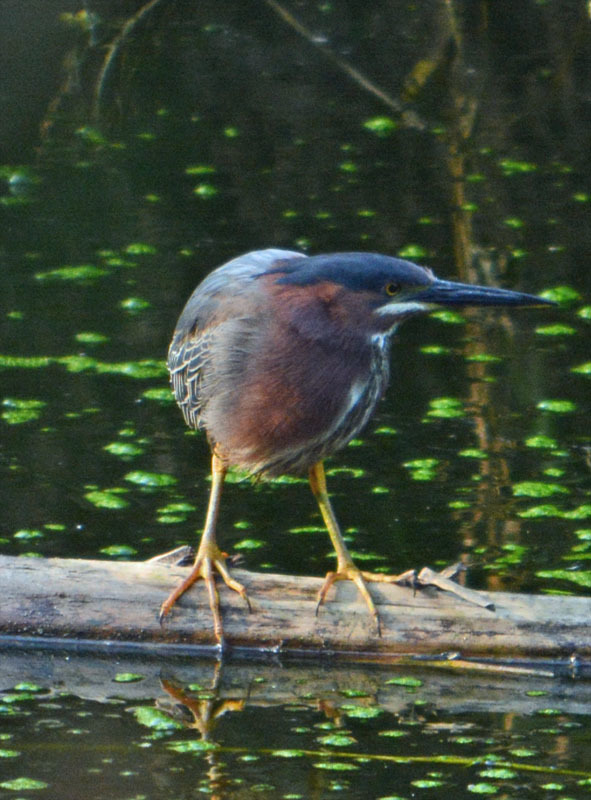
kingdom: Animalia
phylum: Chordata
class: Aves
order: Pelecaniformes
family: Ardeidae
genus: Butorides
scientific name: Butorides virescens
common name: Green heron
